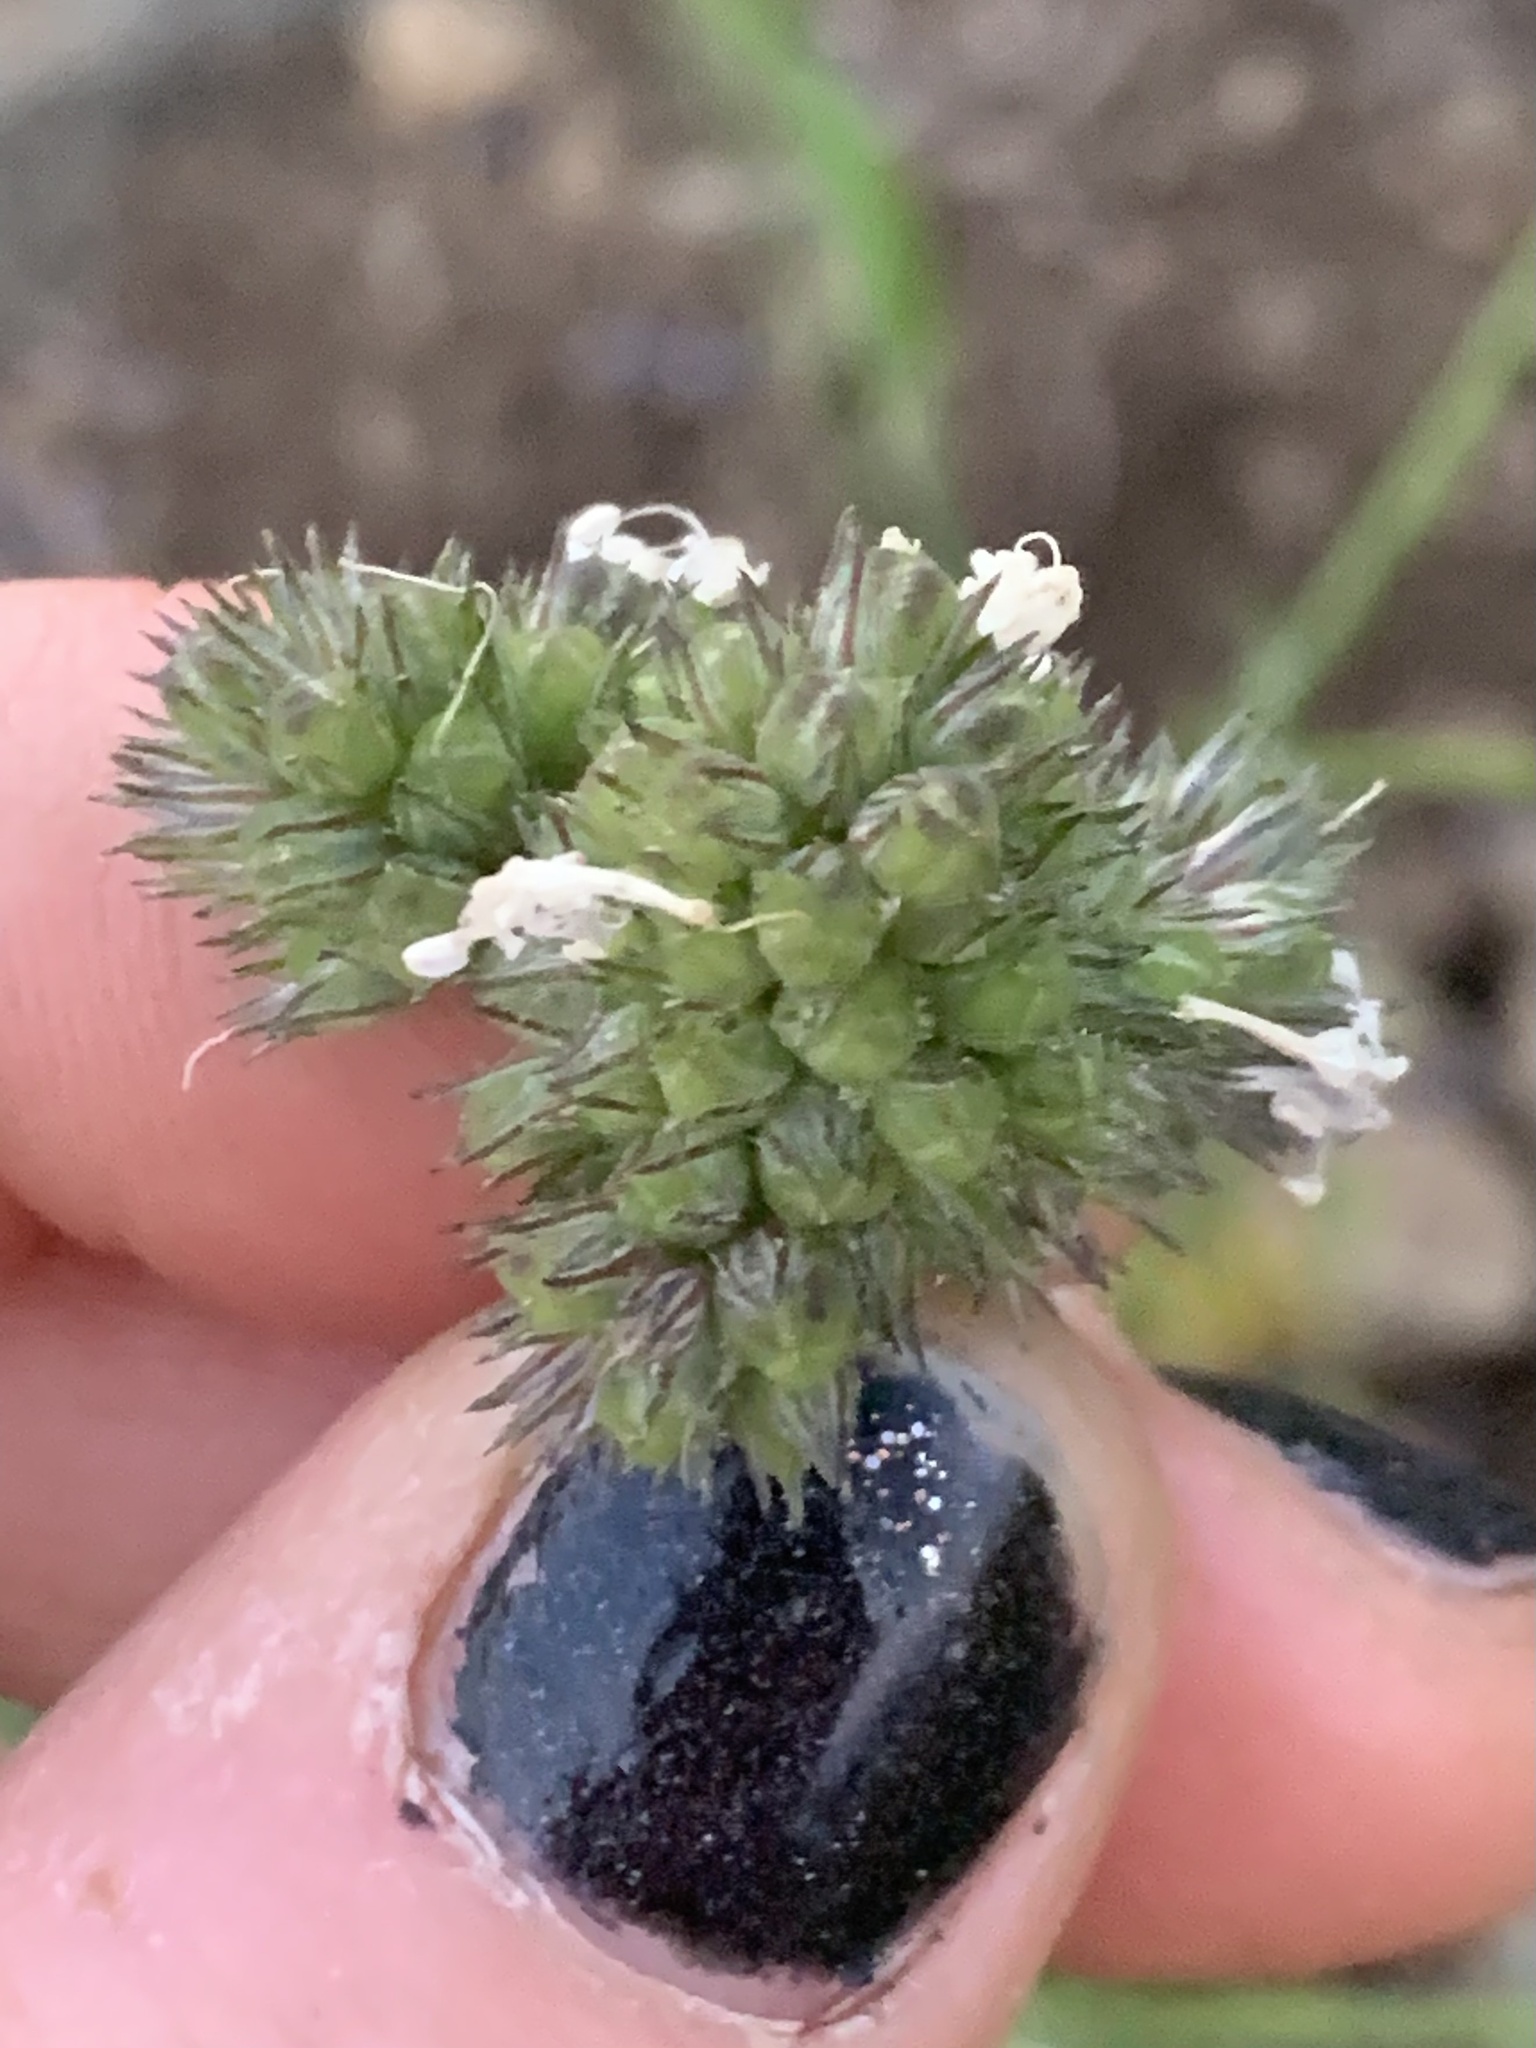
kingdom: Plantae
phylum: Tracheophyta
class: Magnoliopsida
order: Ericales
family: Polemoniaceae
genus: Gilia
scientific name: Gilia capitata
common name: Bluehead gilia
